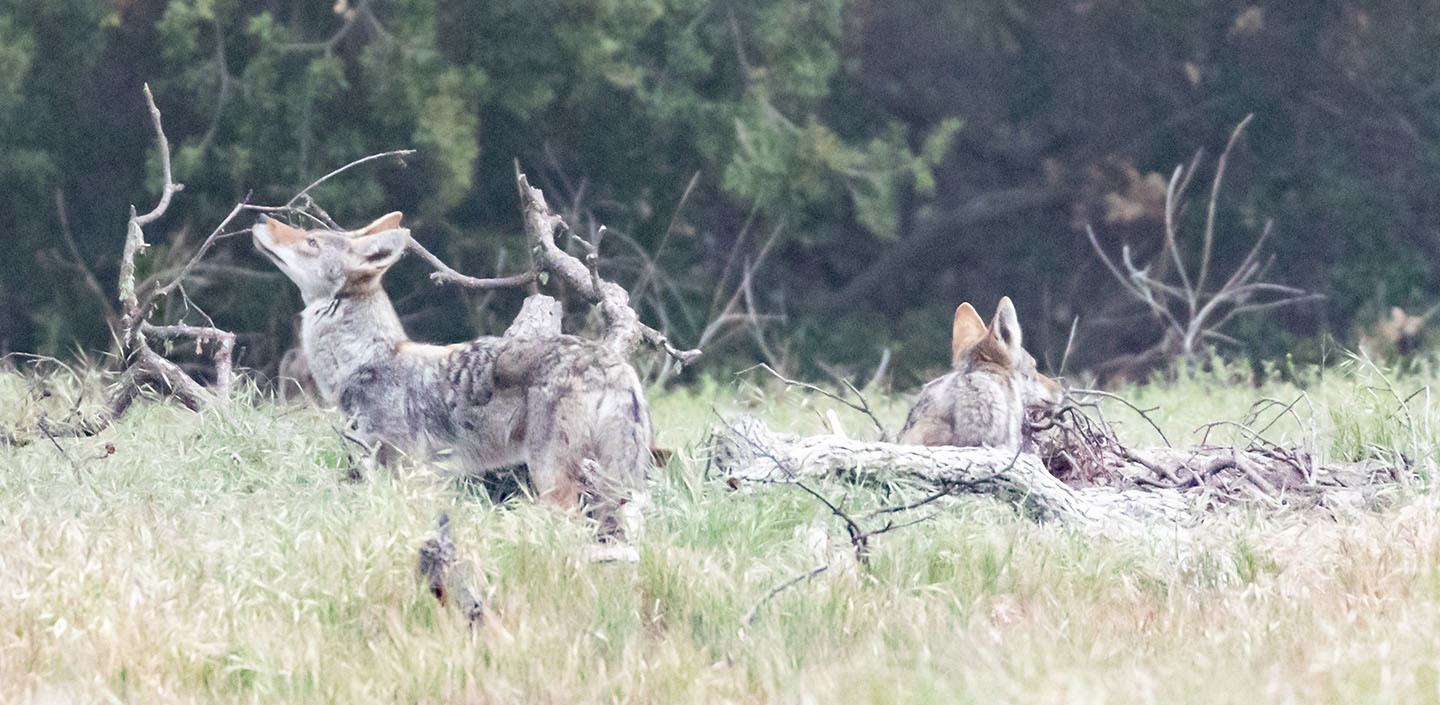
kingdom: Animalia
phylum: Chordata
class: Mammalia
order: Carnivora
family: Canidae
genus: Canis
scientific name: Canis latrans
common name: Coyote
